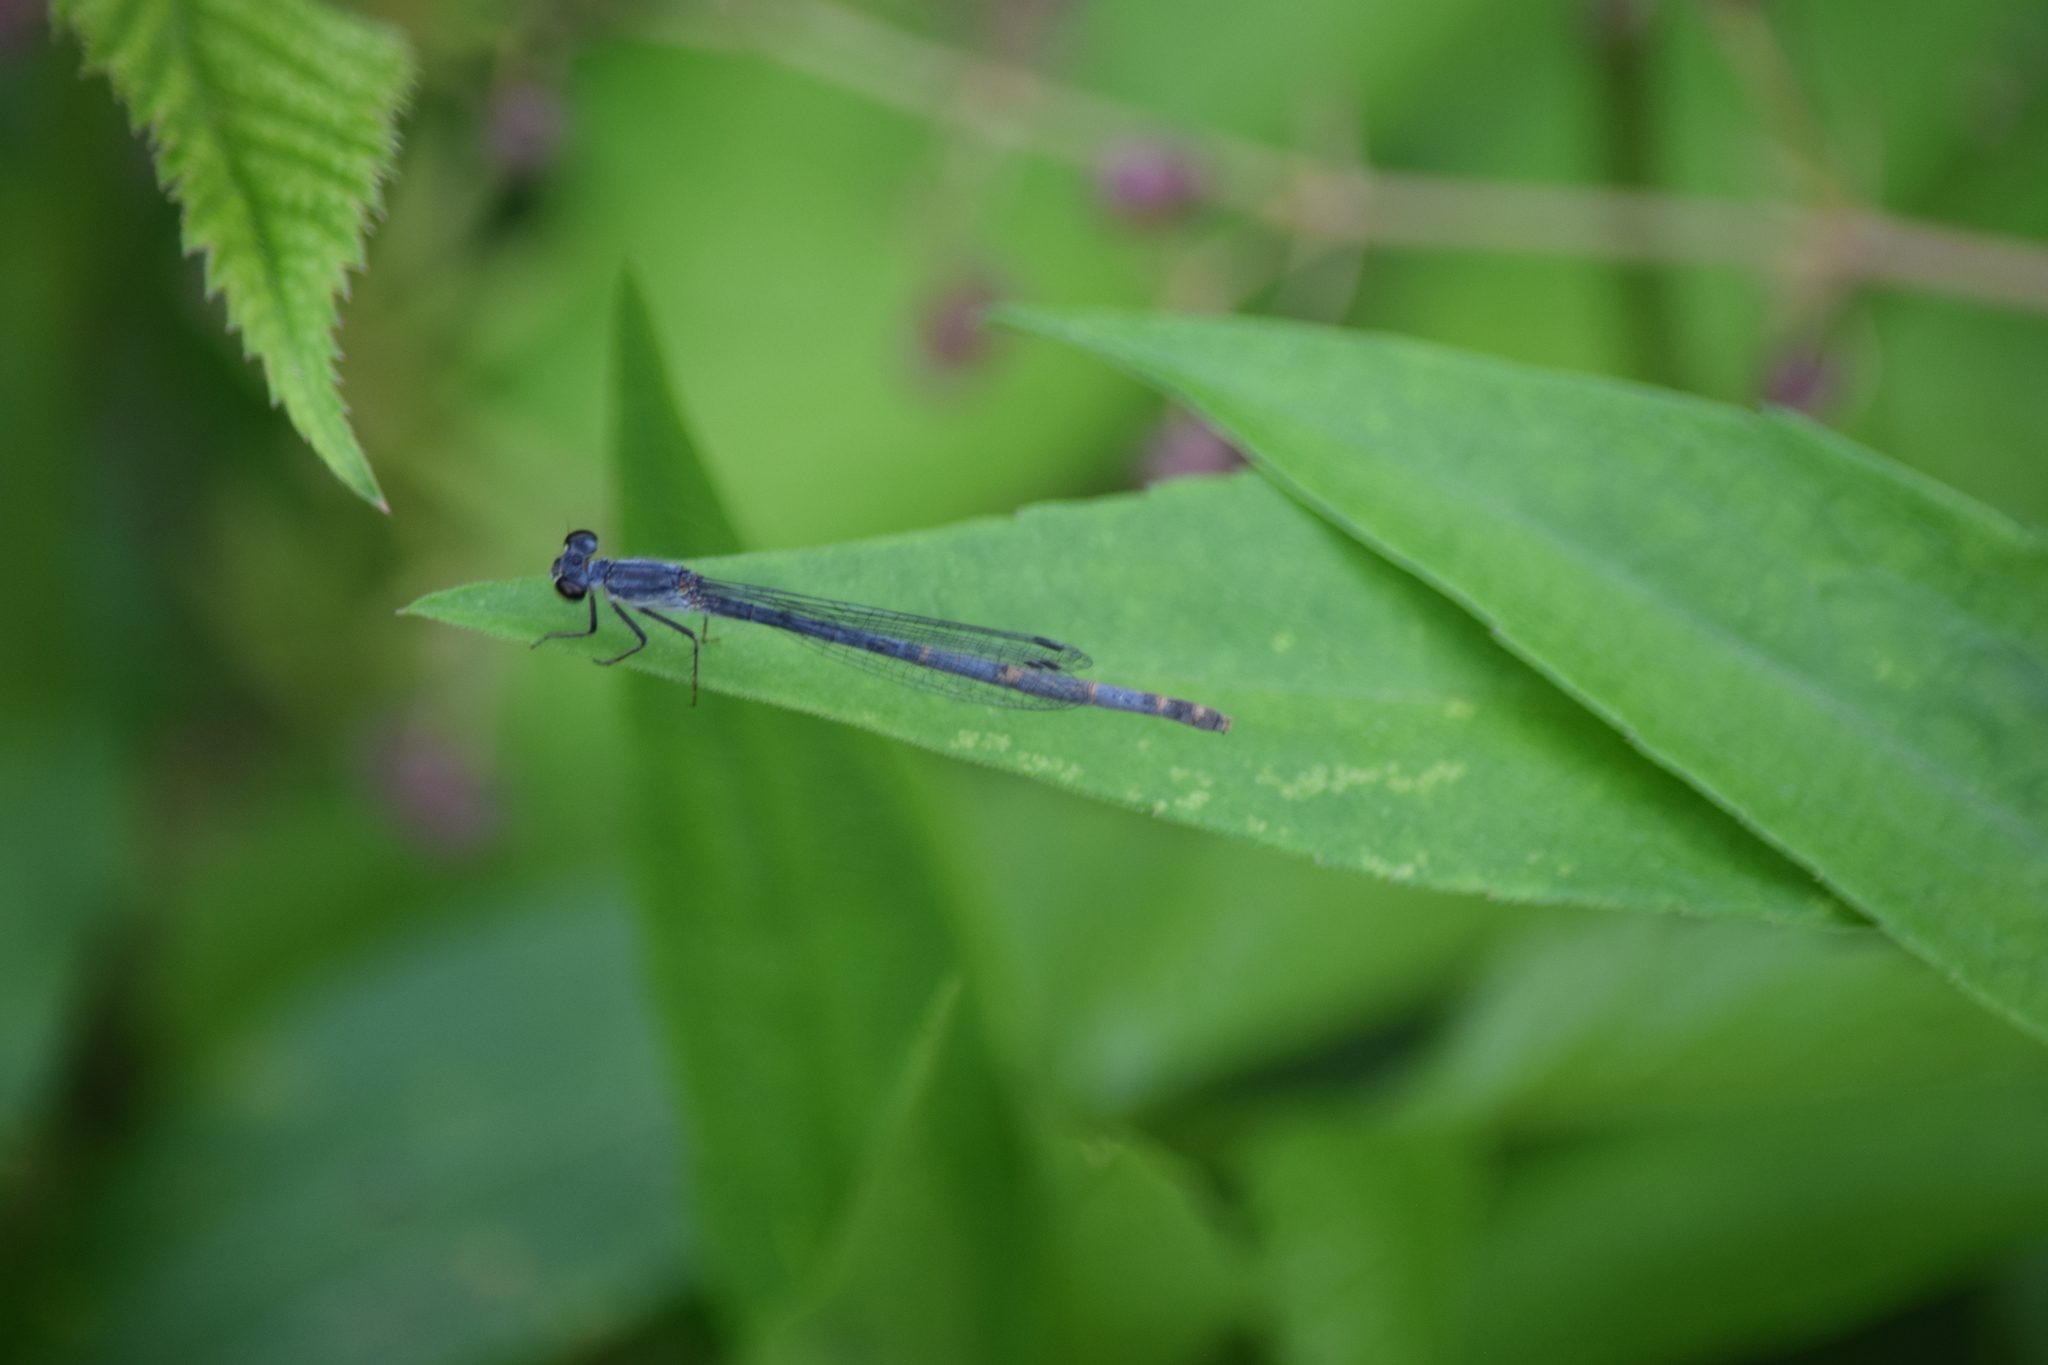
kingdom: Animalia
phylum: Arthropoda
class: Insecta
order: Odonata
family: Coenagrionidae
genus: Ischnura
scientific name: Ischnura posita
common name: Fragile forktail
